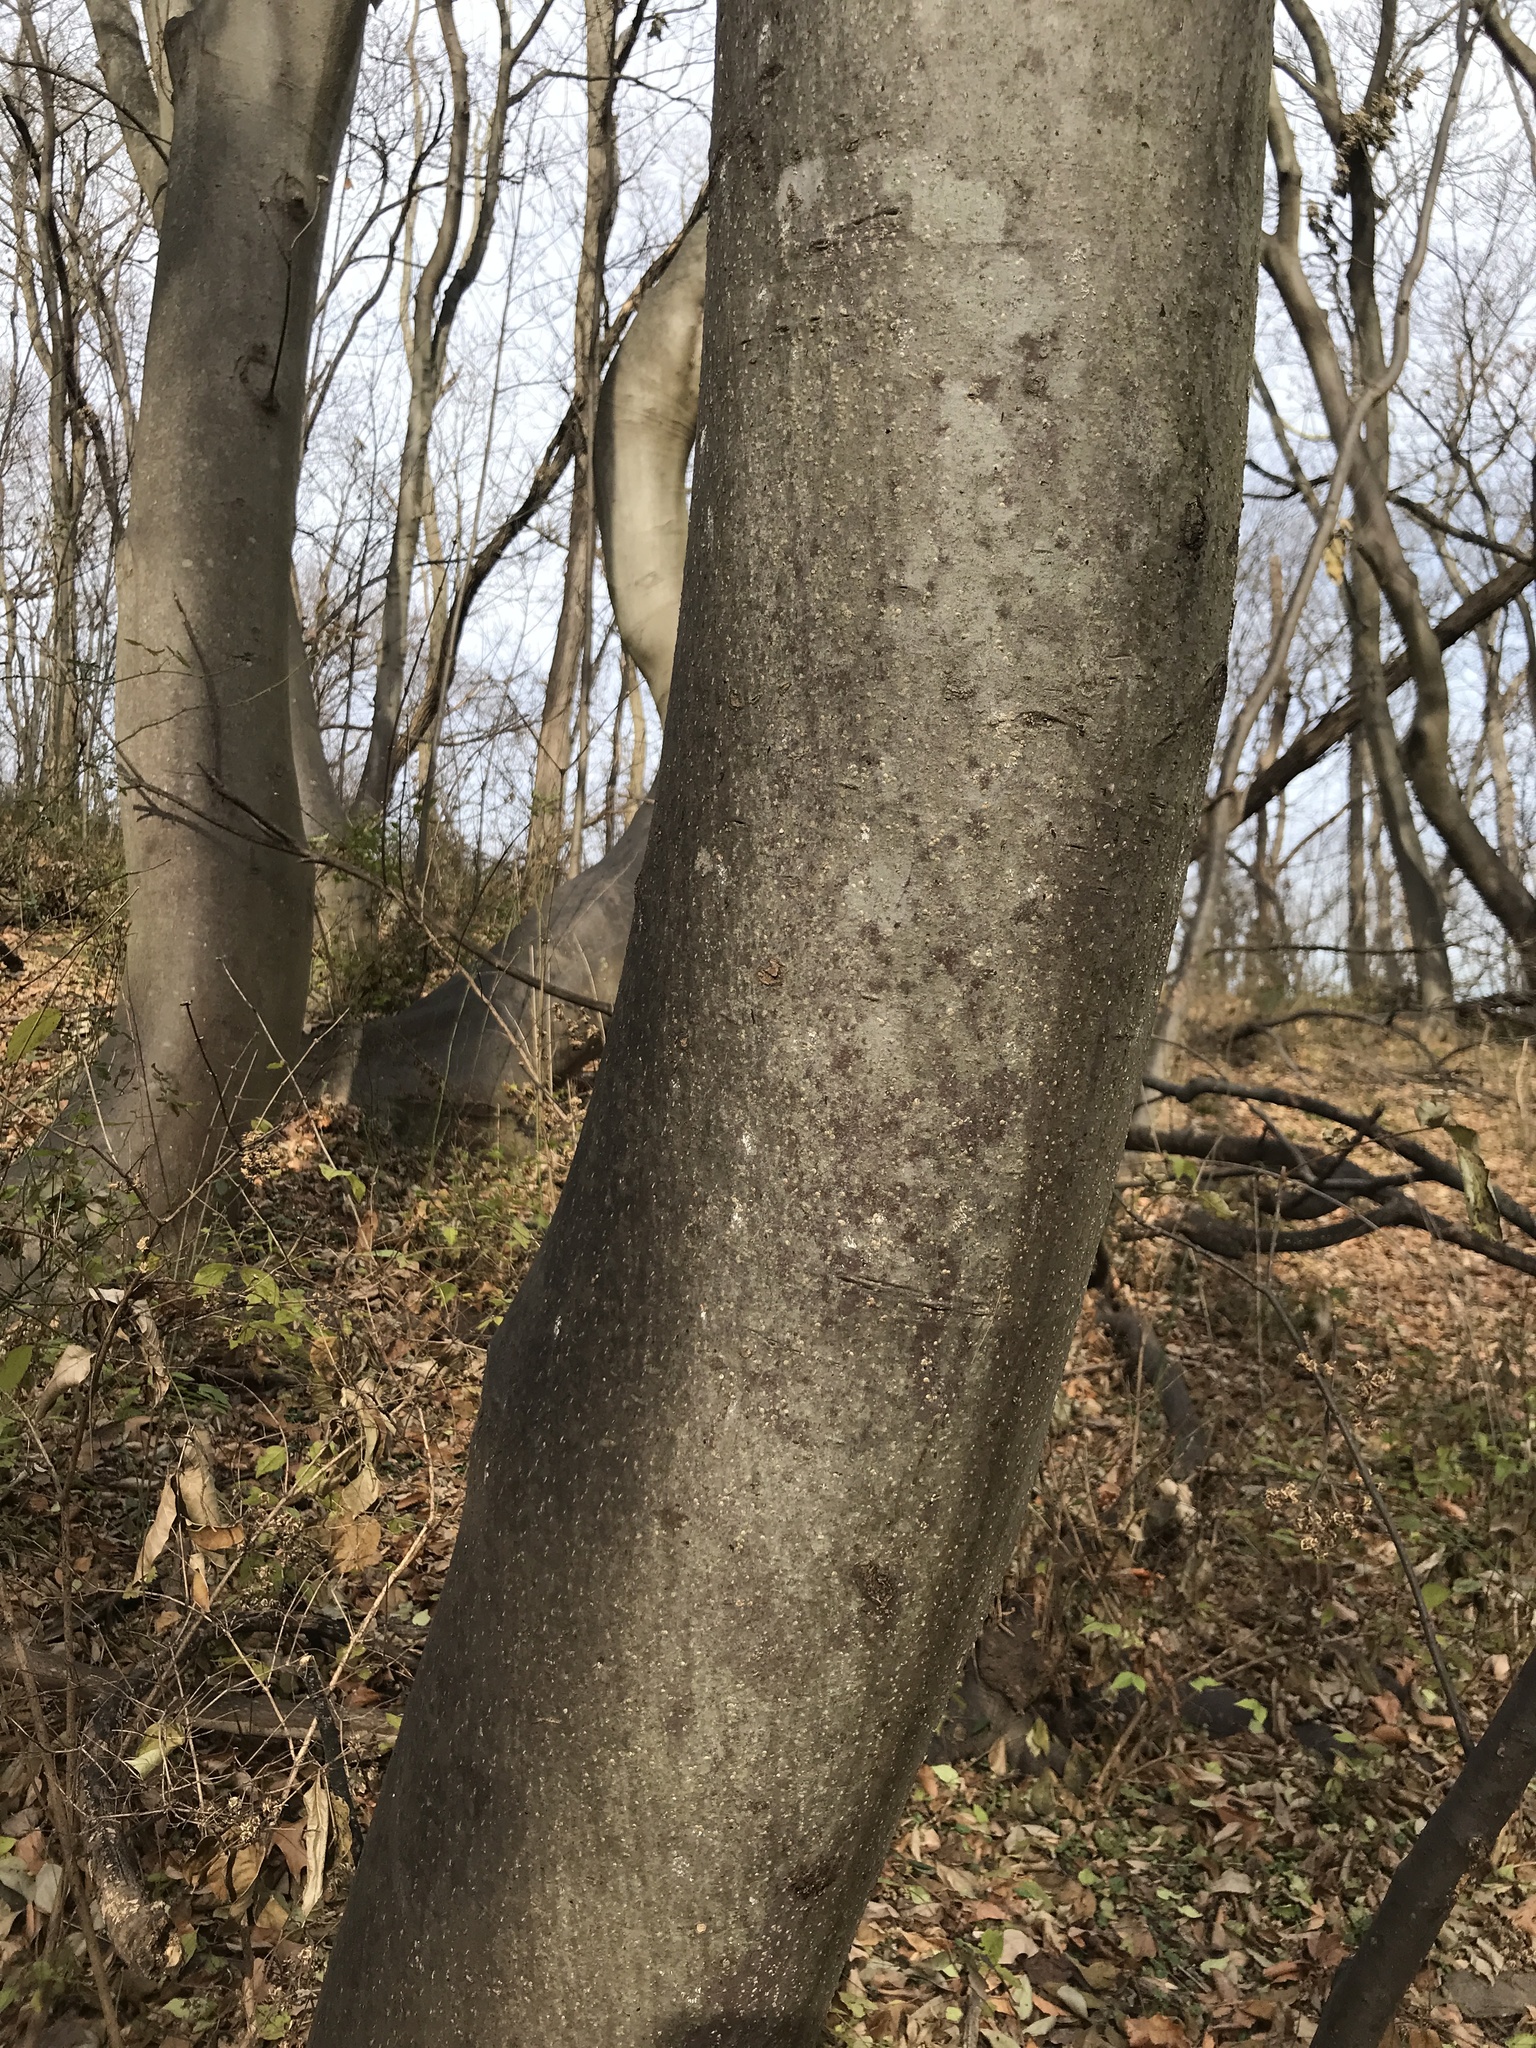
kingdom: Plantae
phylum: Tracheophyta
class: Magnoliopsida
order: Sapindales
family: Rutaceae
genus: Tetradium
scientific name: Tetradium daniellii
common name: Bee-bee tree
